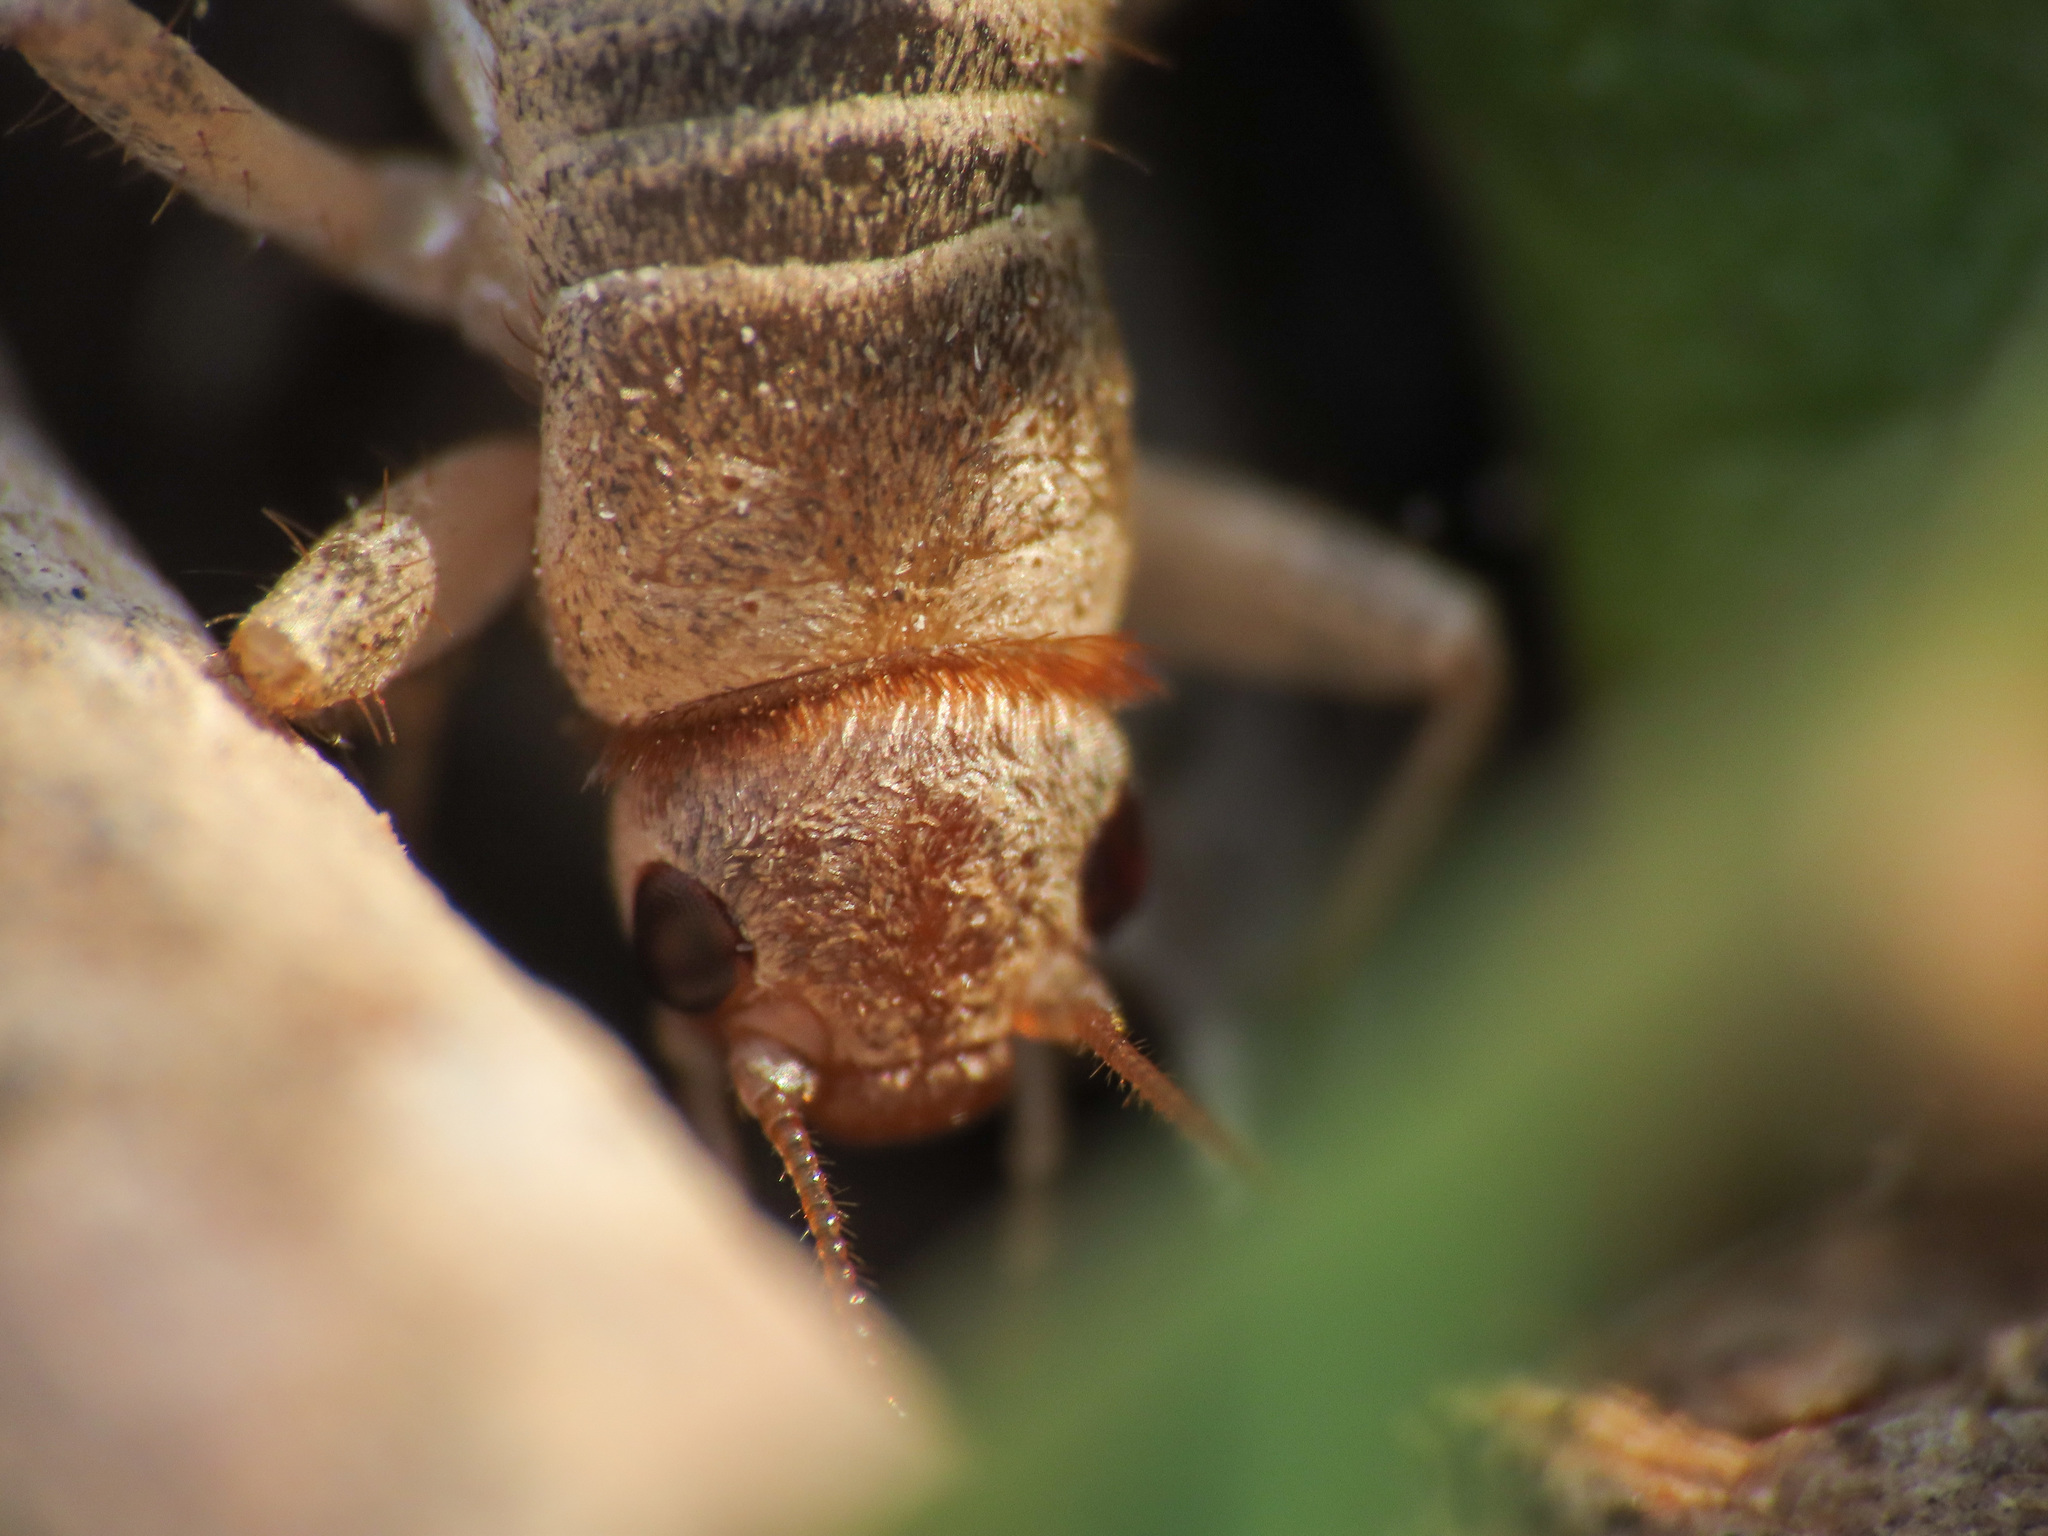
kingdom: Animalia
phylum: Arthropoda
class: Insecta
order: Orthoptera
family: Mogoplistidae
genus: Pseudomogoplistes
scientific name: Pseudomogoplistes squamiger
